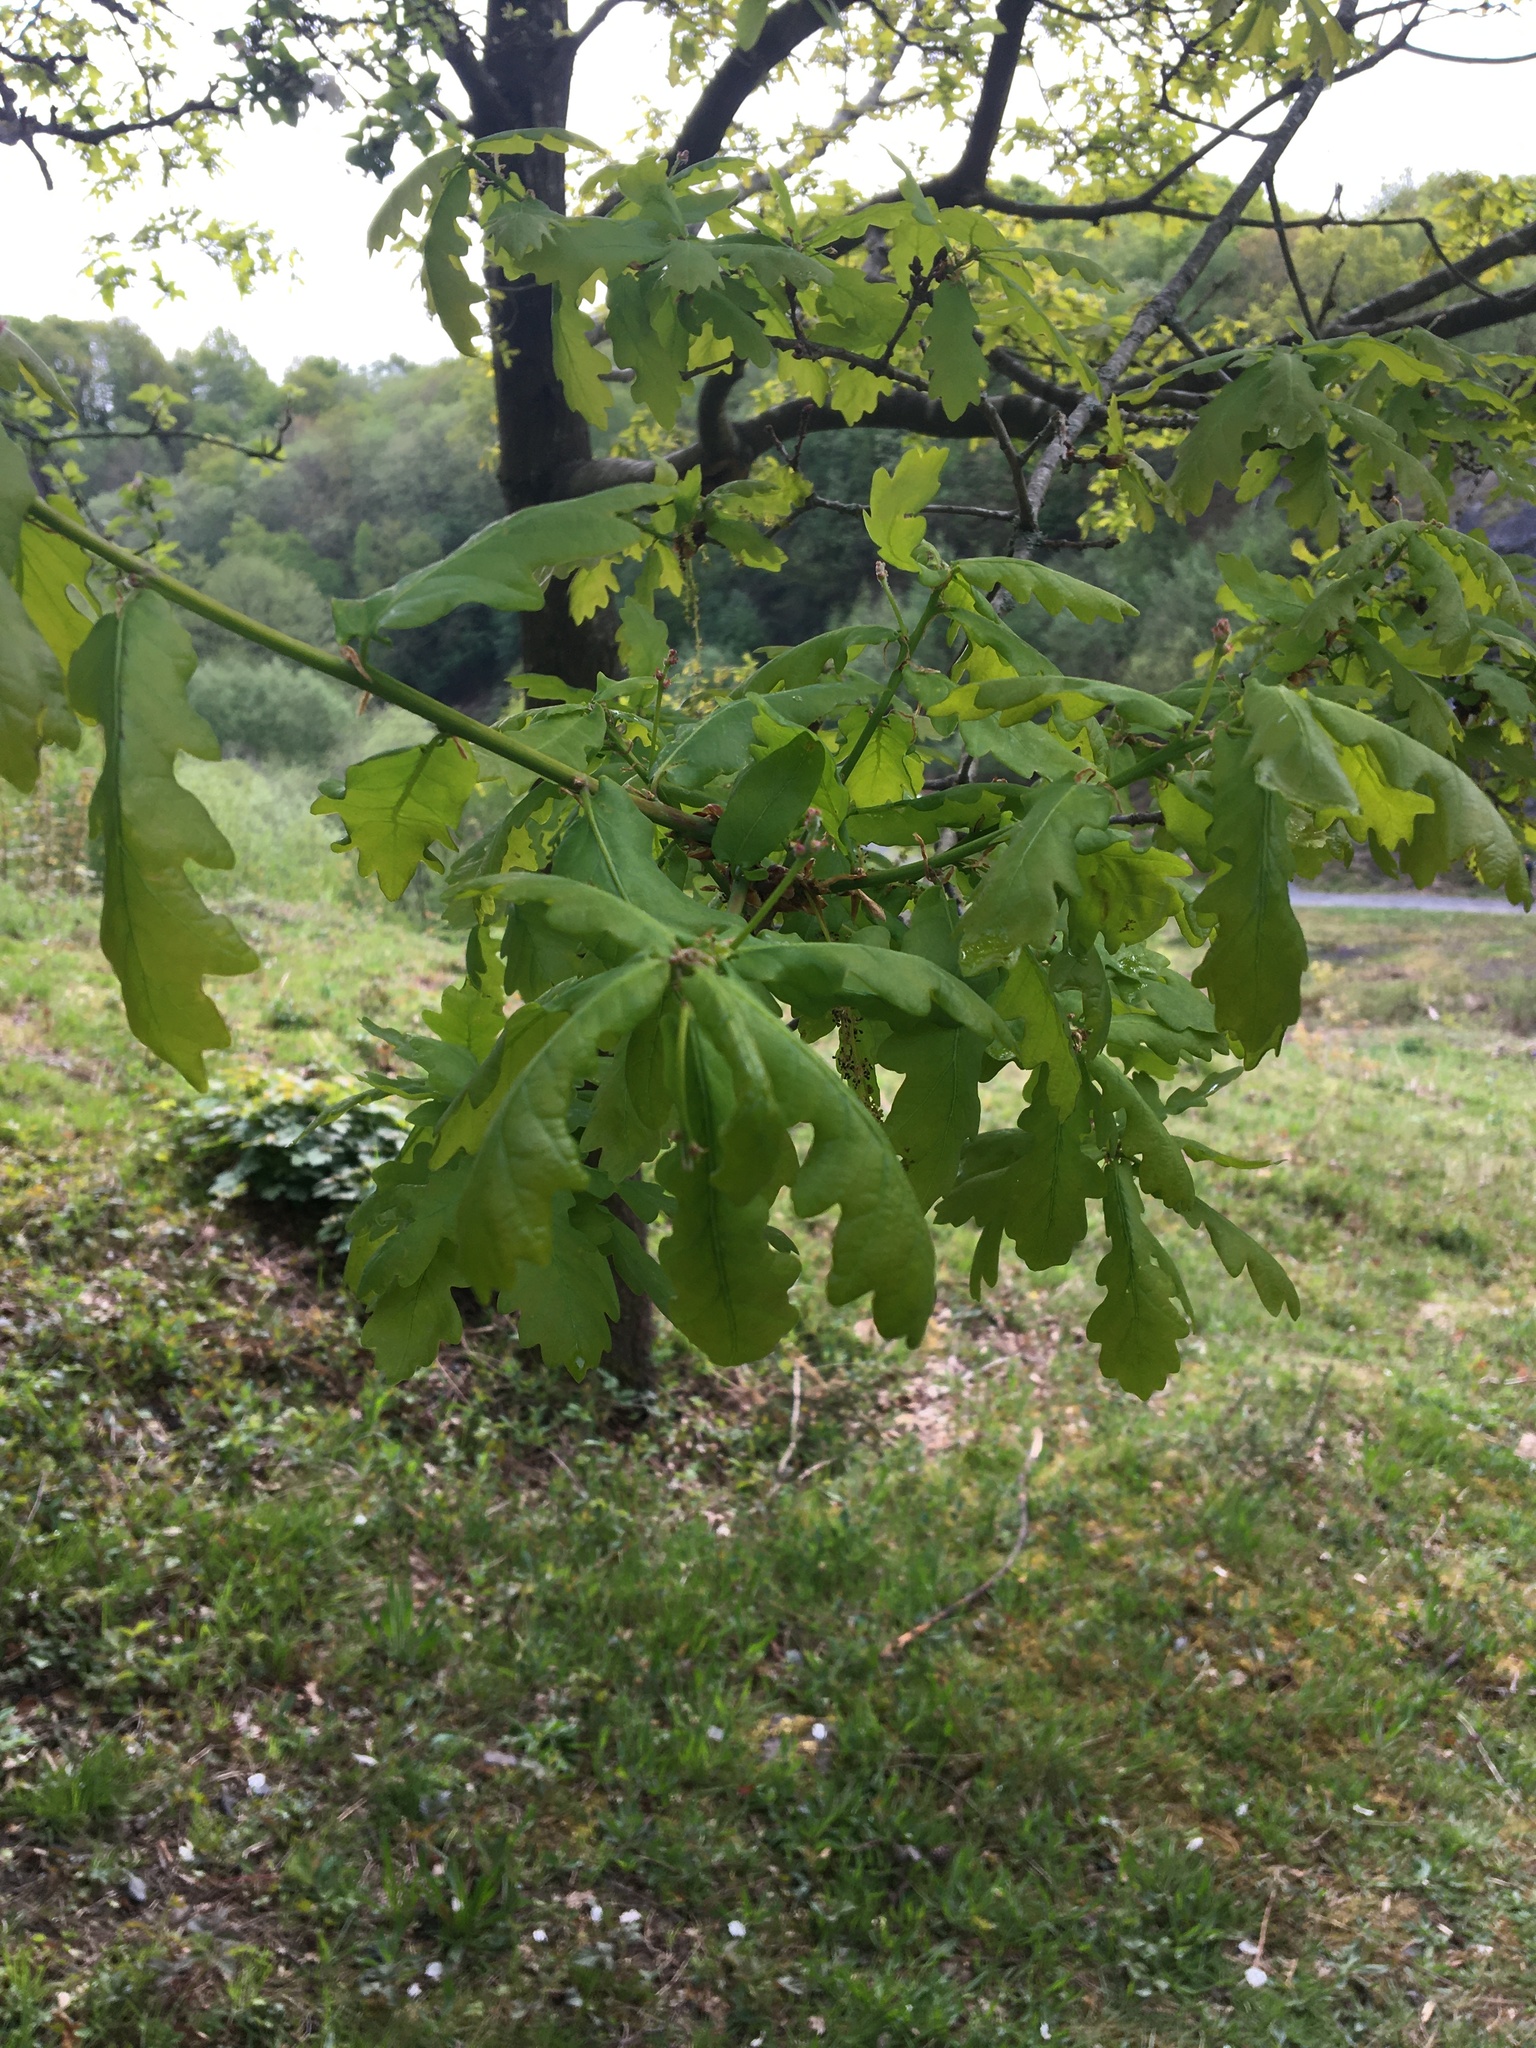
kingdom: Plantae
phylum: Tracheophyta
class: Magnoliopsida
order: Fagales
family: Fagaceae
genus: Quercus
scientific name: Quercus robur
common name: Pedunculate oak
